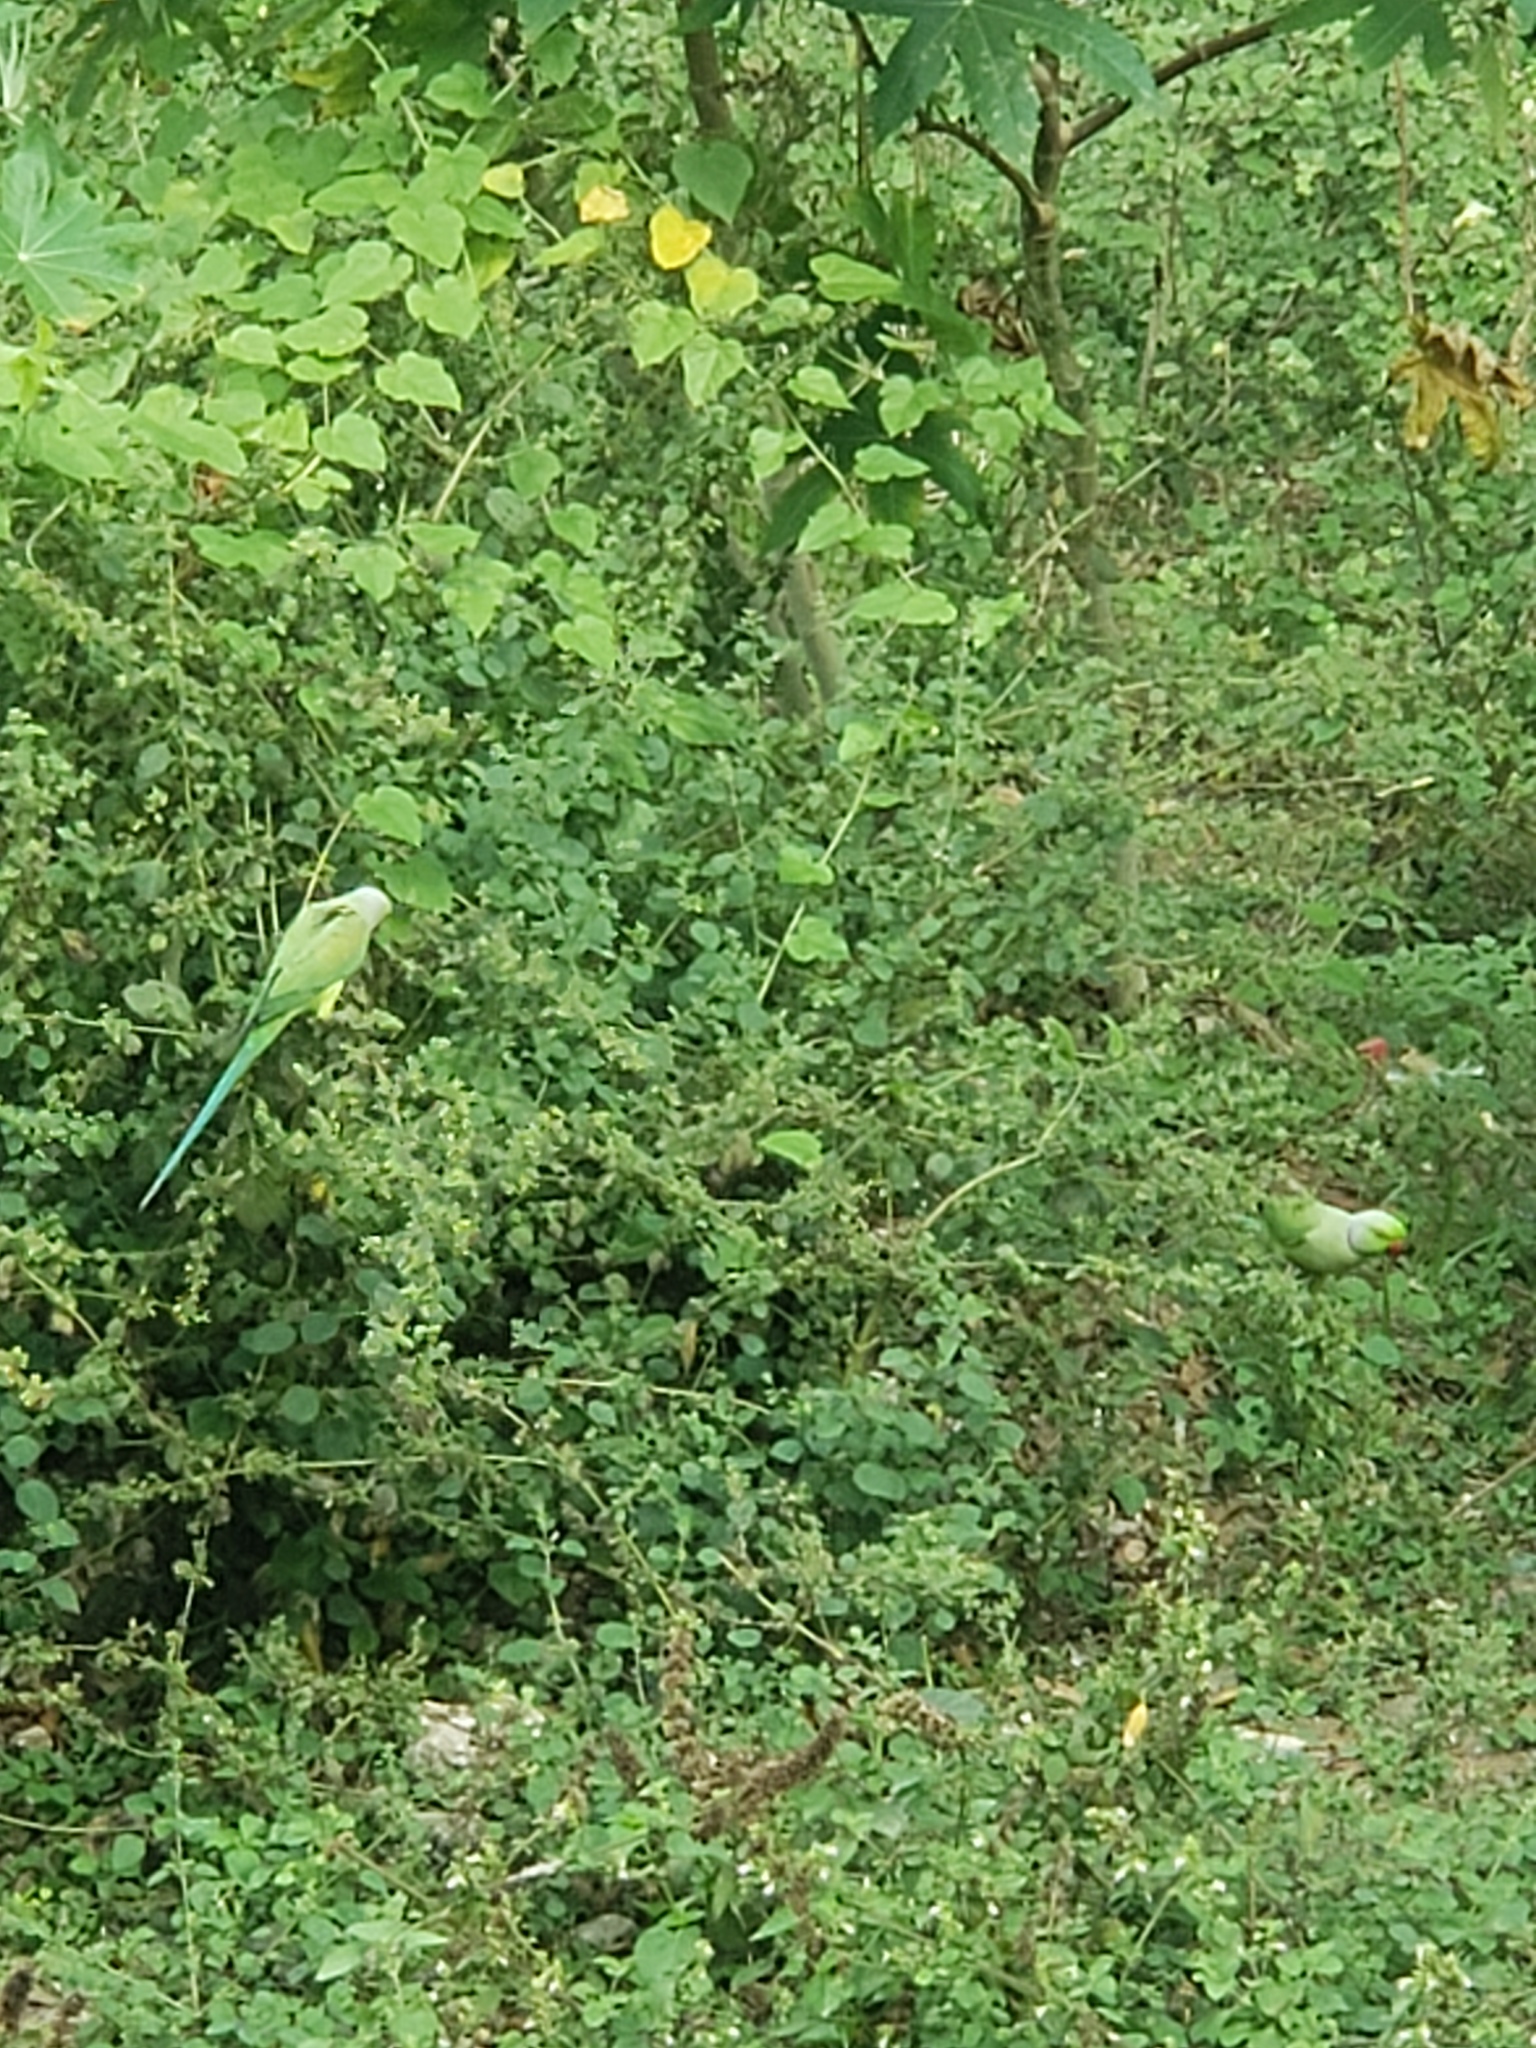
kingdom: Animalia
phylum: Chordata
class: Aves
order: Psittaciformes
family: Psittacidae
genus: Psittacula
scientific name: Psittacula krameri
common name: Rose-ringed parakeet
